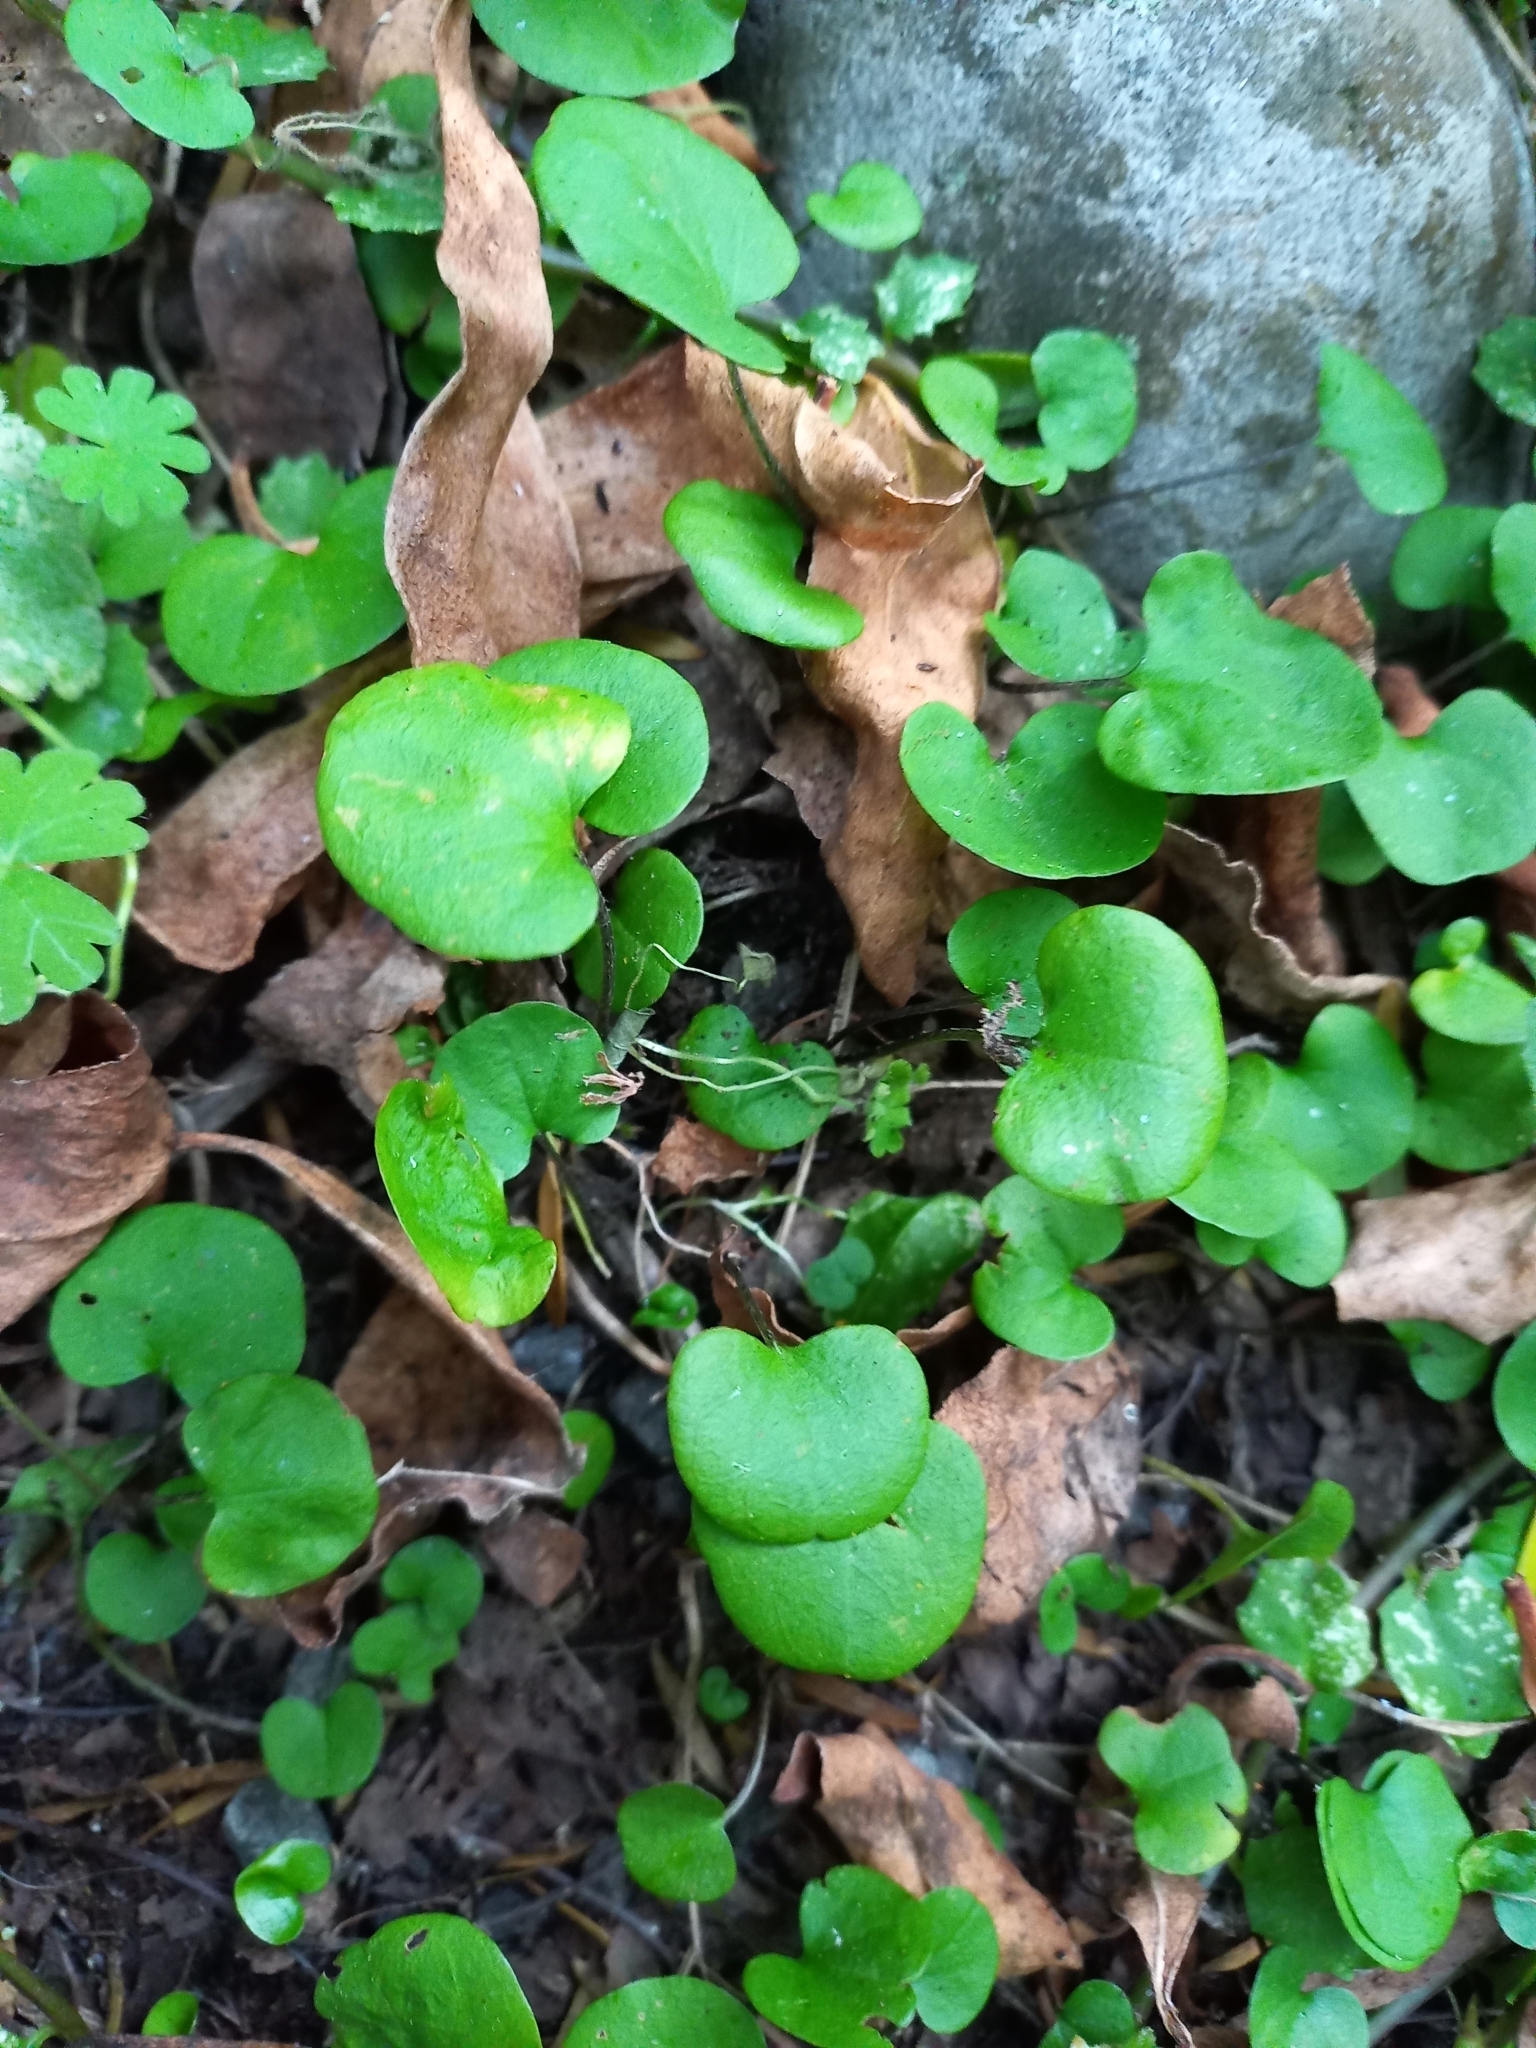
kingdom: Plantae
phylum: Tracheophyta
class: Magnoliopsida
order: Solanales
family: Convolvulaceae
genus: Dichondra
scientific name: Dichondra micrantha
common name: Kidneyweed
